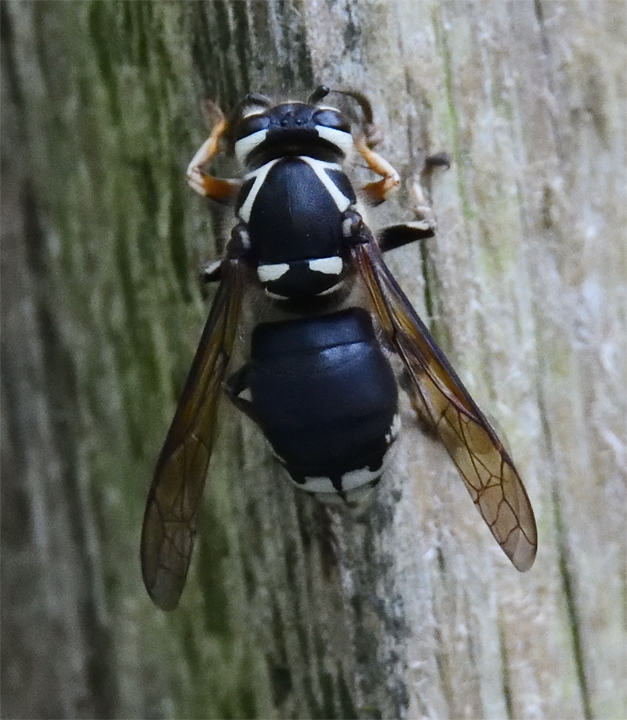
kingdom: Animalia
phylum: Arthropoda
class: Insecta
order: Hymenoptera
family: Vespidae
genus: Dolichovespula
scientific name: Dolichovespula maculata
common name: Bald-faced hornet
